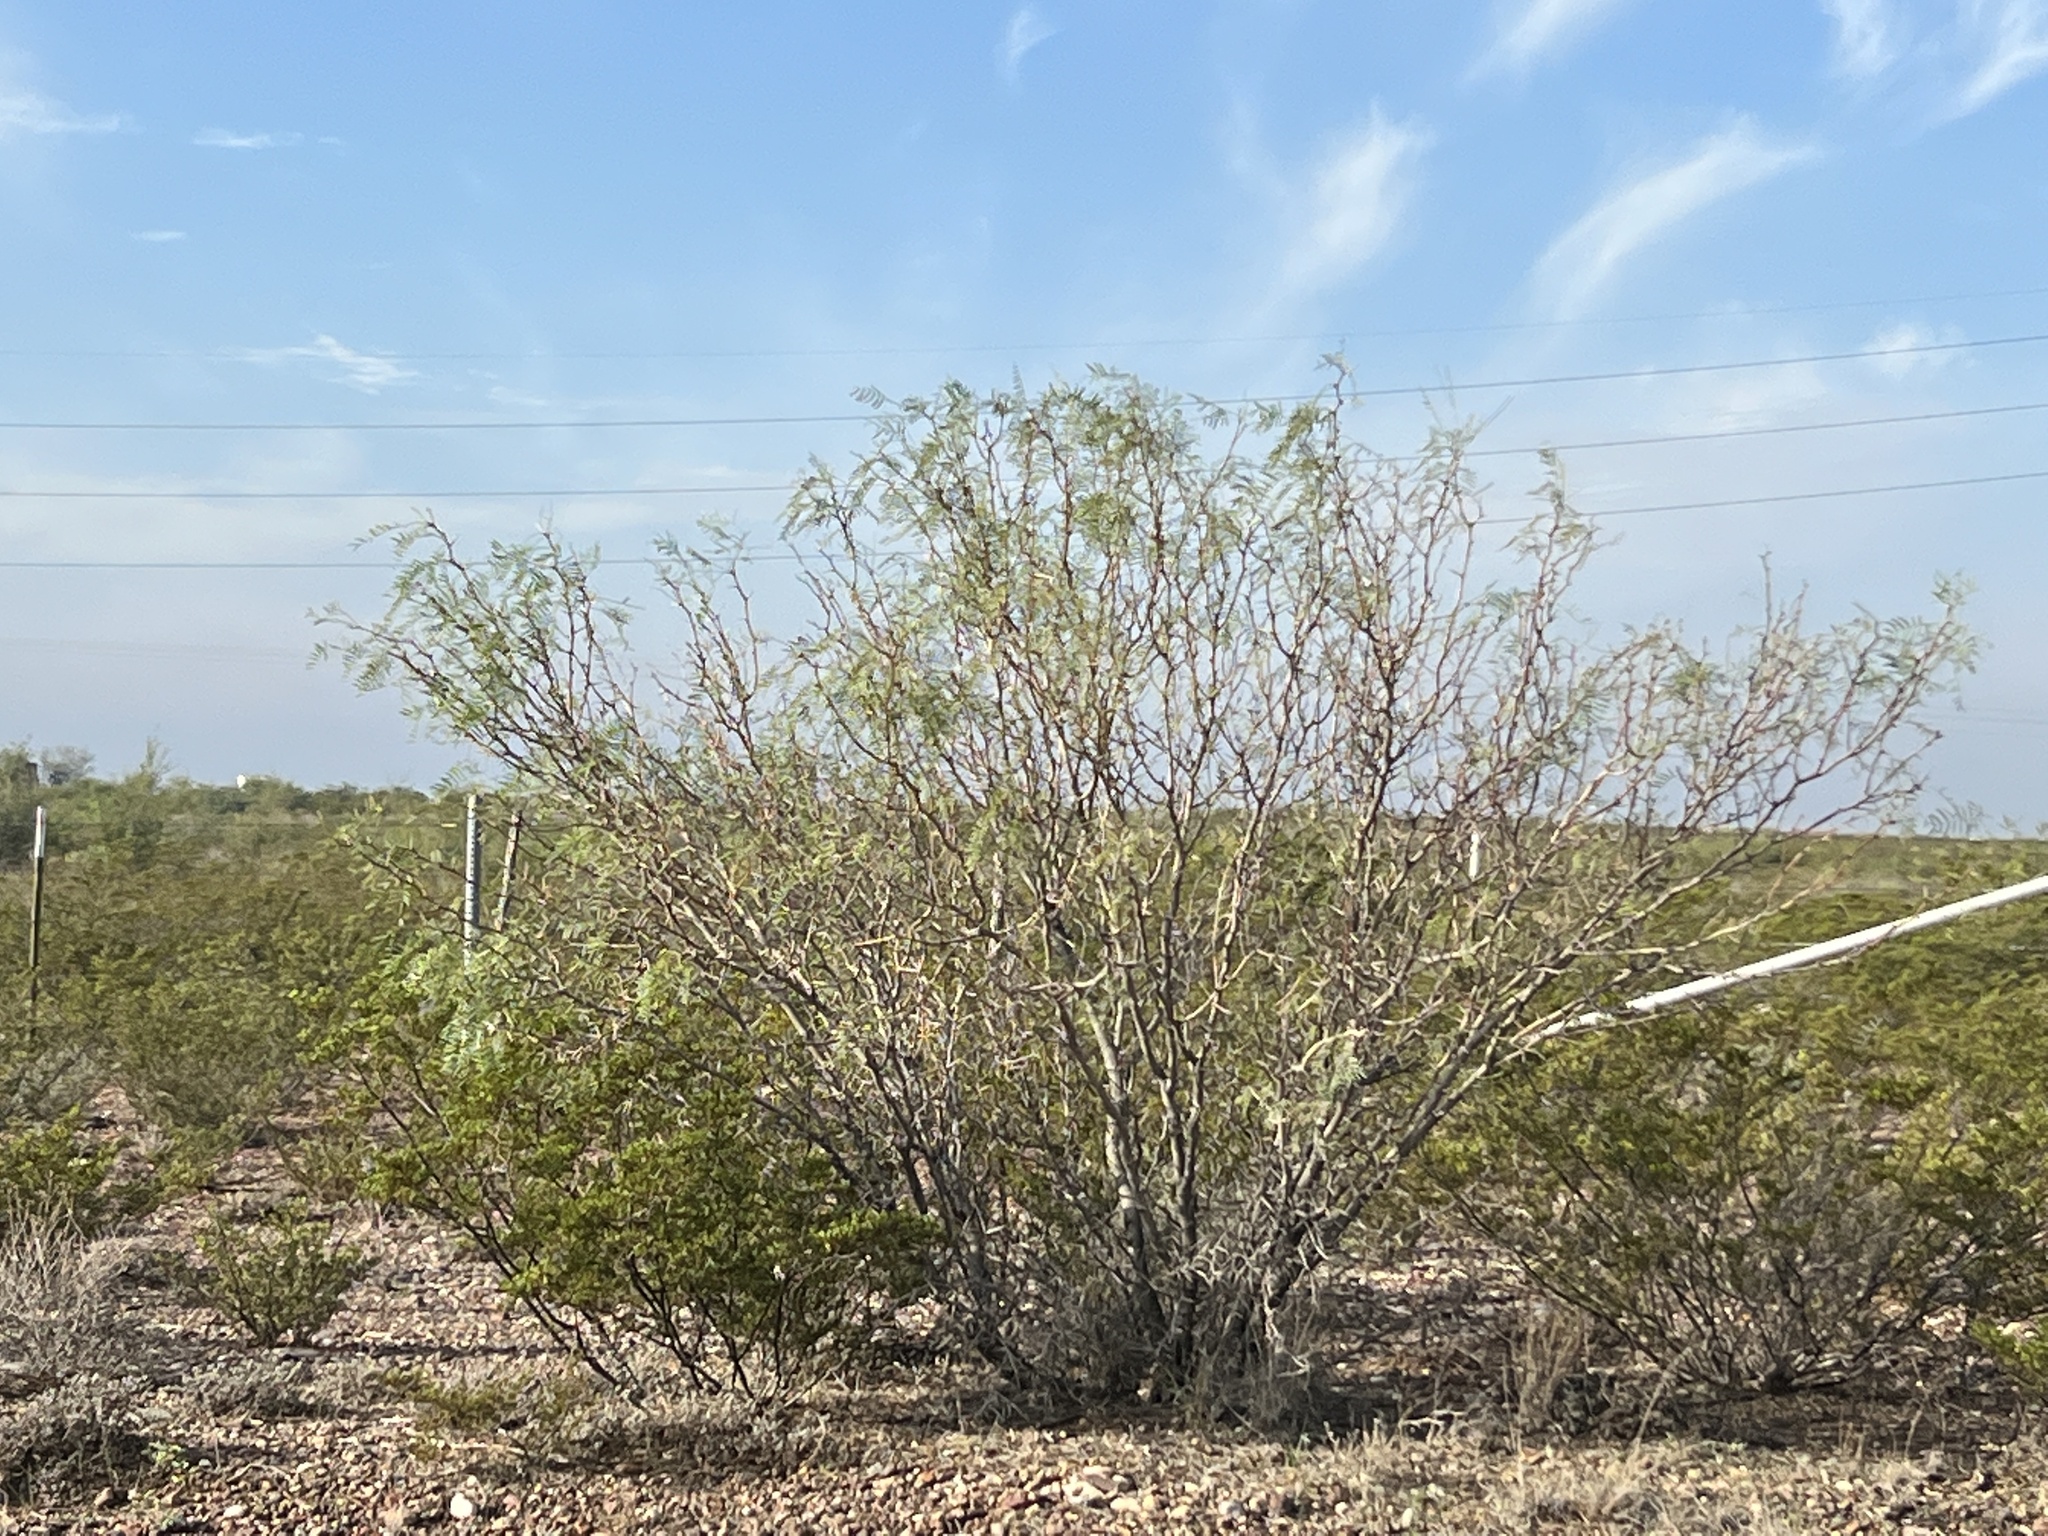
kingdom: Plantae
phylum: Tracheophyta
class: Magnoliopsida
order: Fabales
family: Fabaceae
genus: Prosopis
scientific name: Prosopis glandulosa
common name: Honey mesquite
